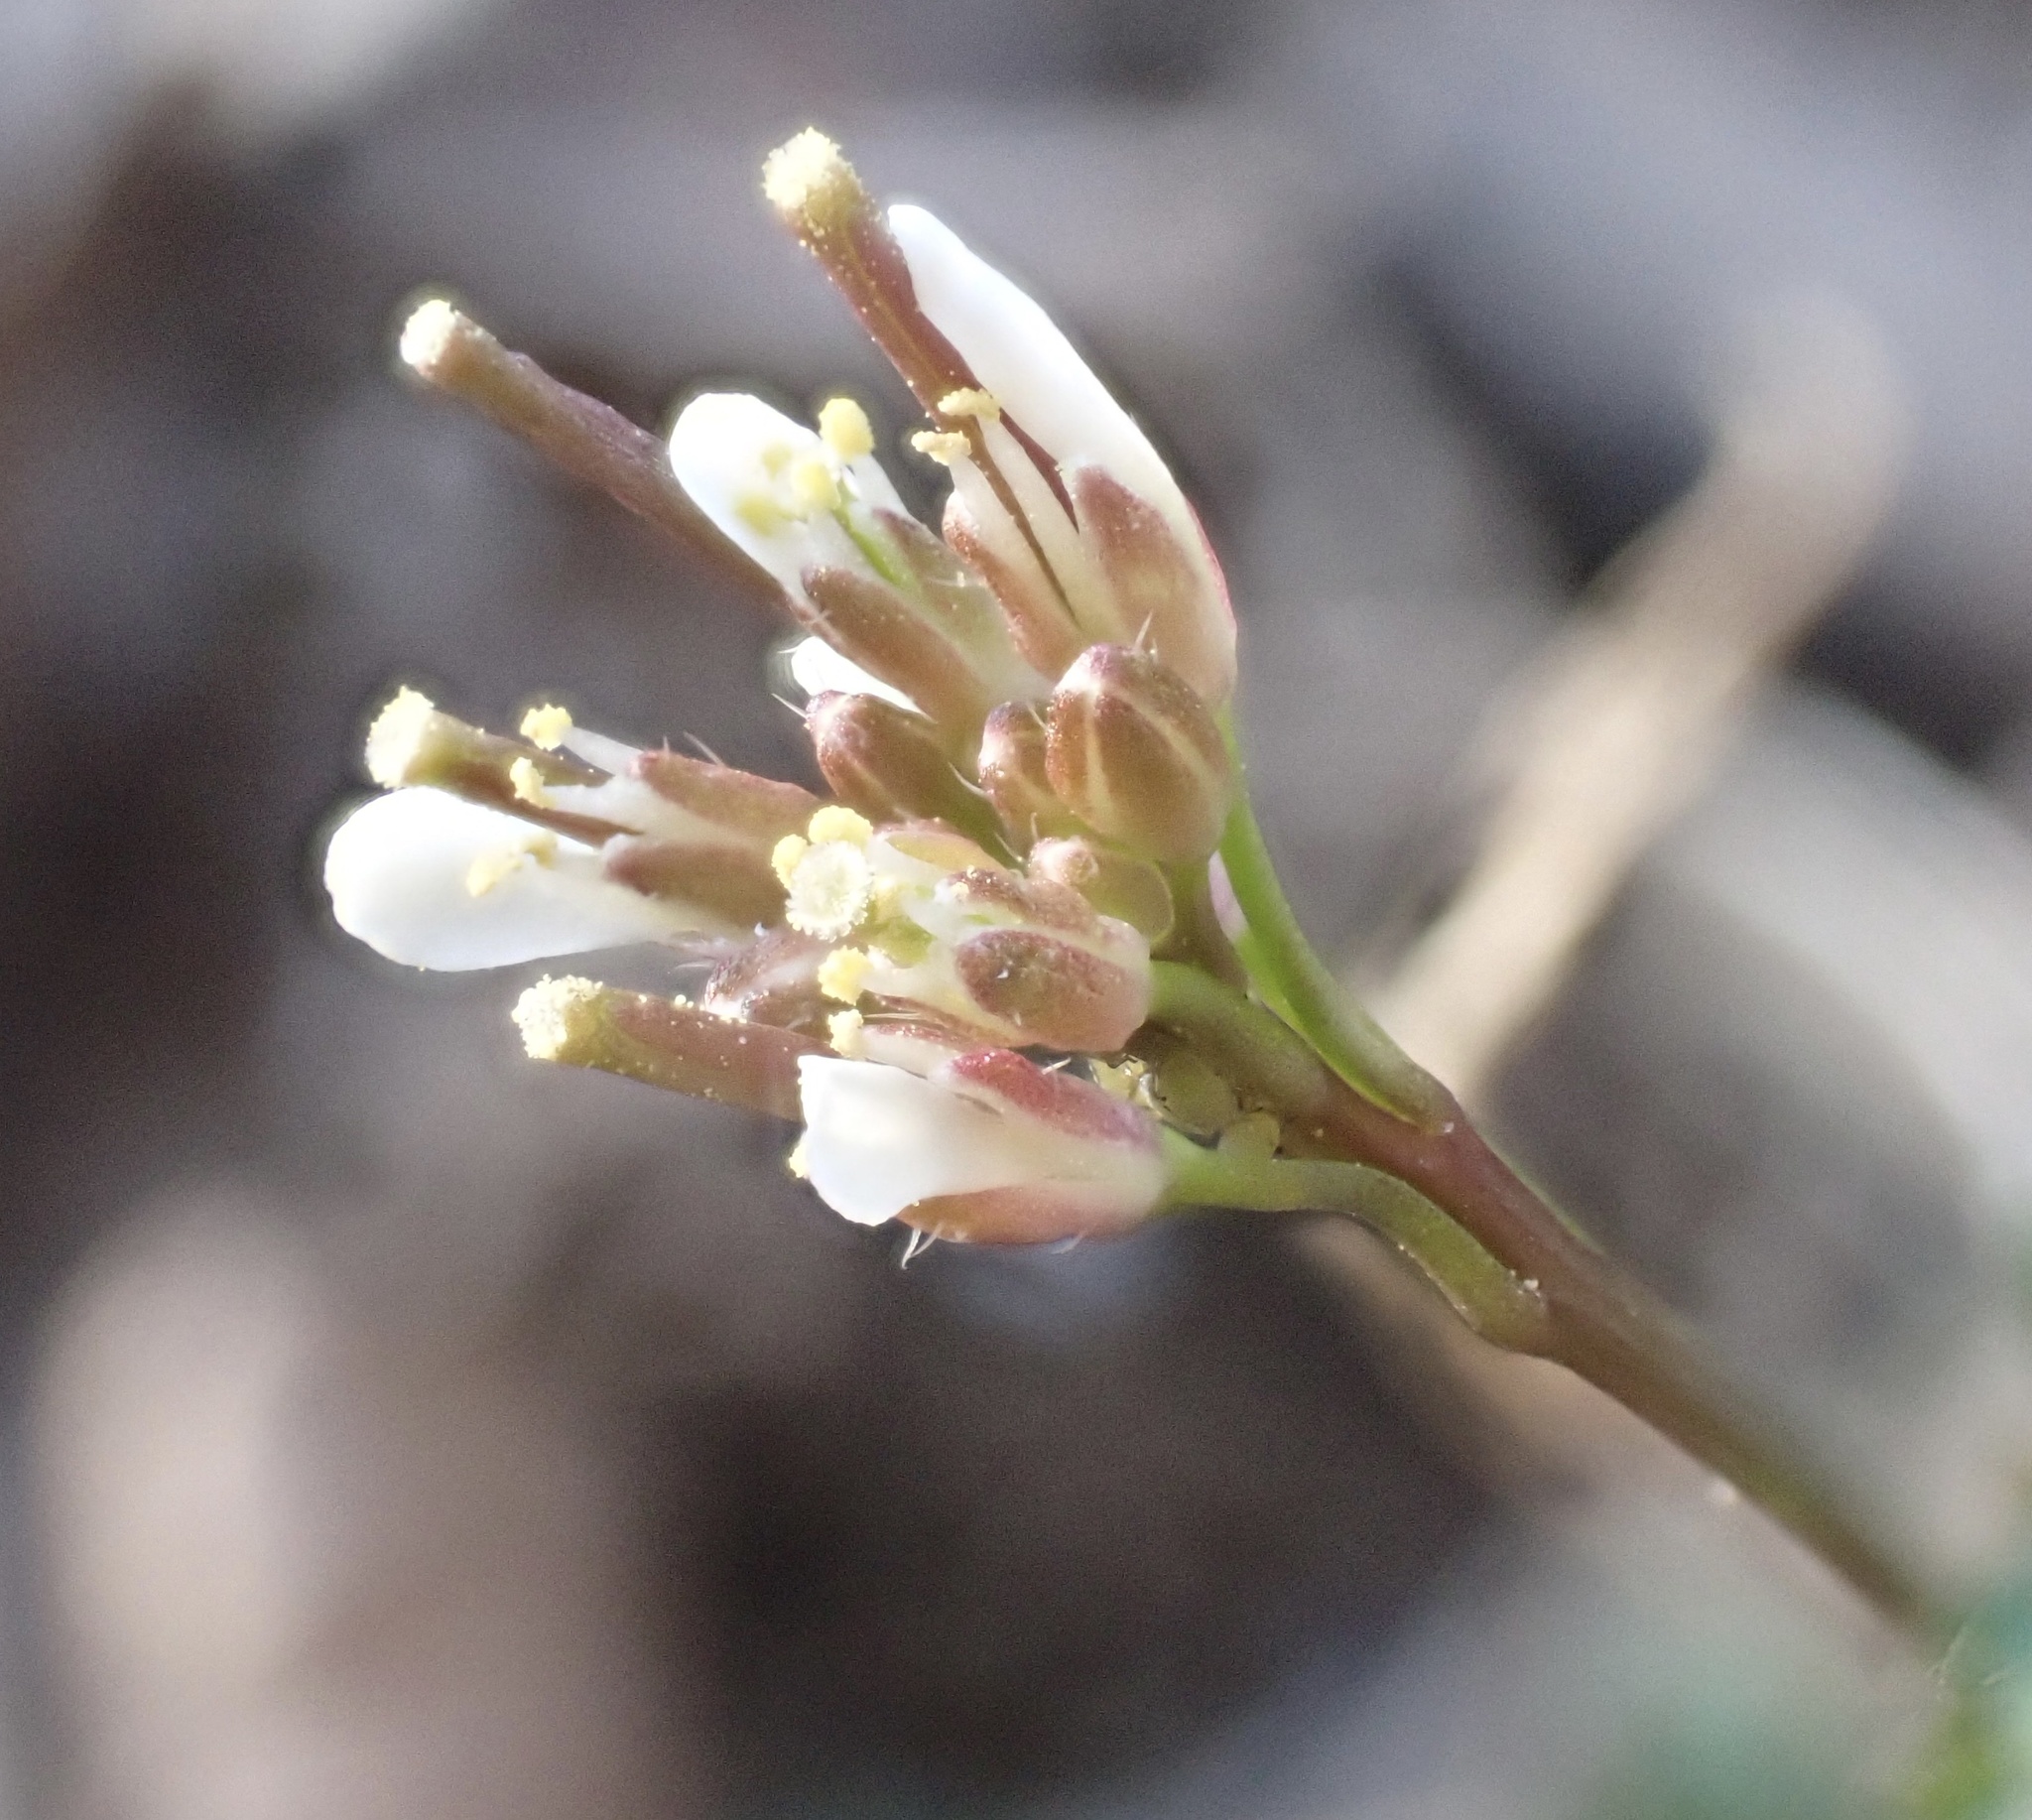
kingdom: Plantae
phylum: Tracheophyta
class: Magnoliopsida
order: Brassicales
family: Brassicaceae
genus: Cardamine
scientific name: Cardamine hirsuta
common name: Hairy bittercress
